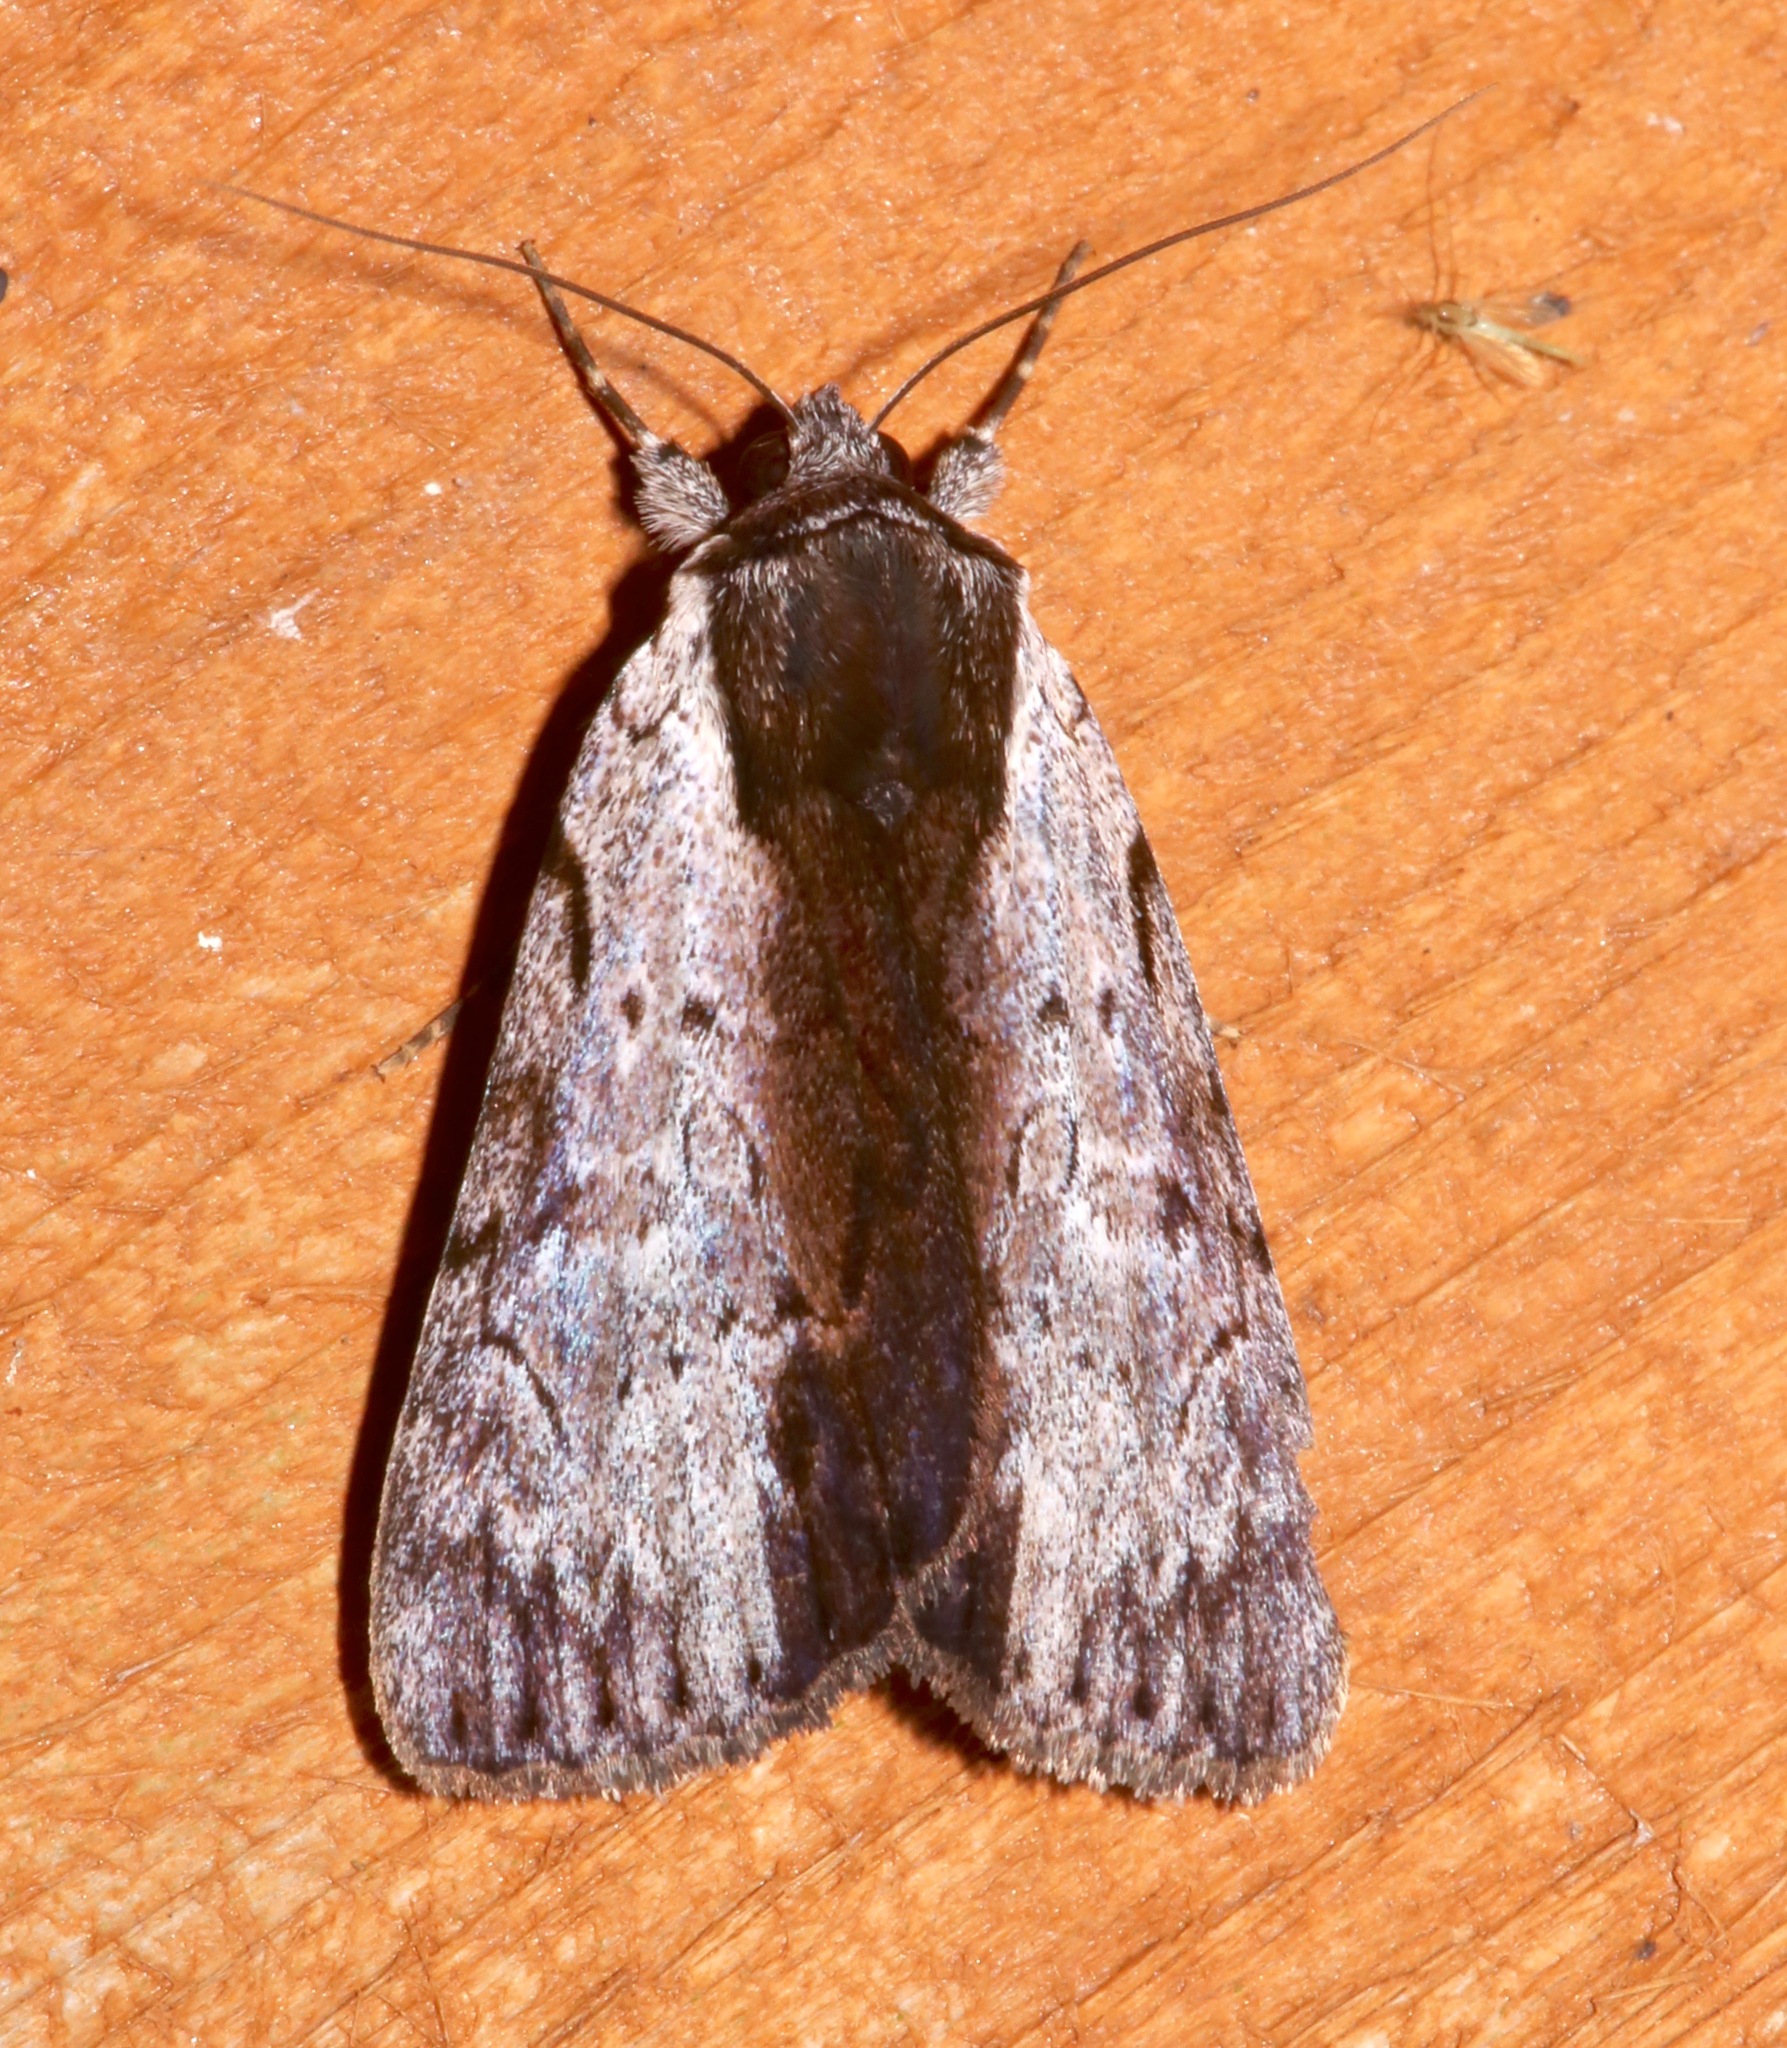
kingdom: Animalia
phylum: Arthropoda
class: Insecta
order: Lepidoptera
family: Erebidae
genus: Catocala
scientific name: Catocala gracilis
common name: Graceful underwing
